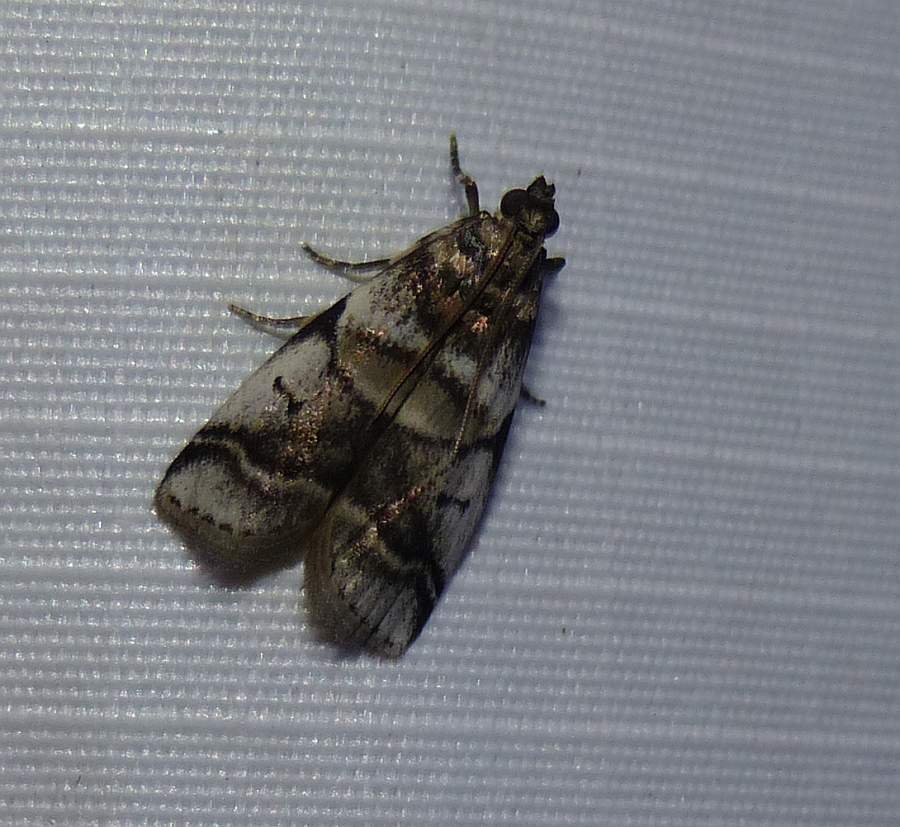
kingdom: Animalia
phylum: Arthropoda
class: Insecta
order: Lepidoptera
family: Pyralidae
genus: Acrobasis
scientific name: Acrobasis indigenella
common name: Leaf crumpler moth
